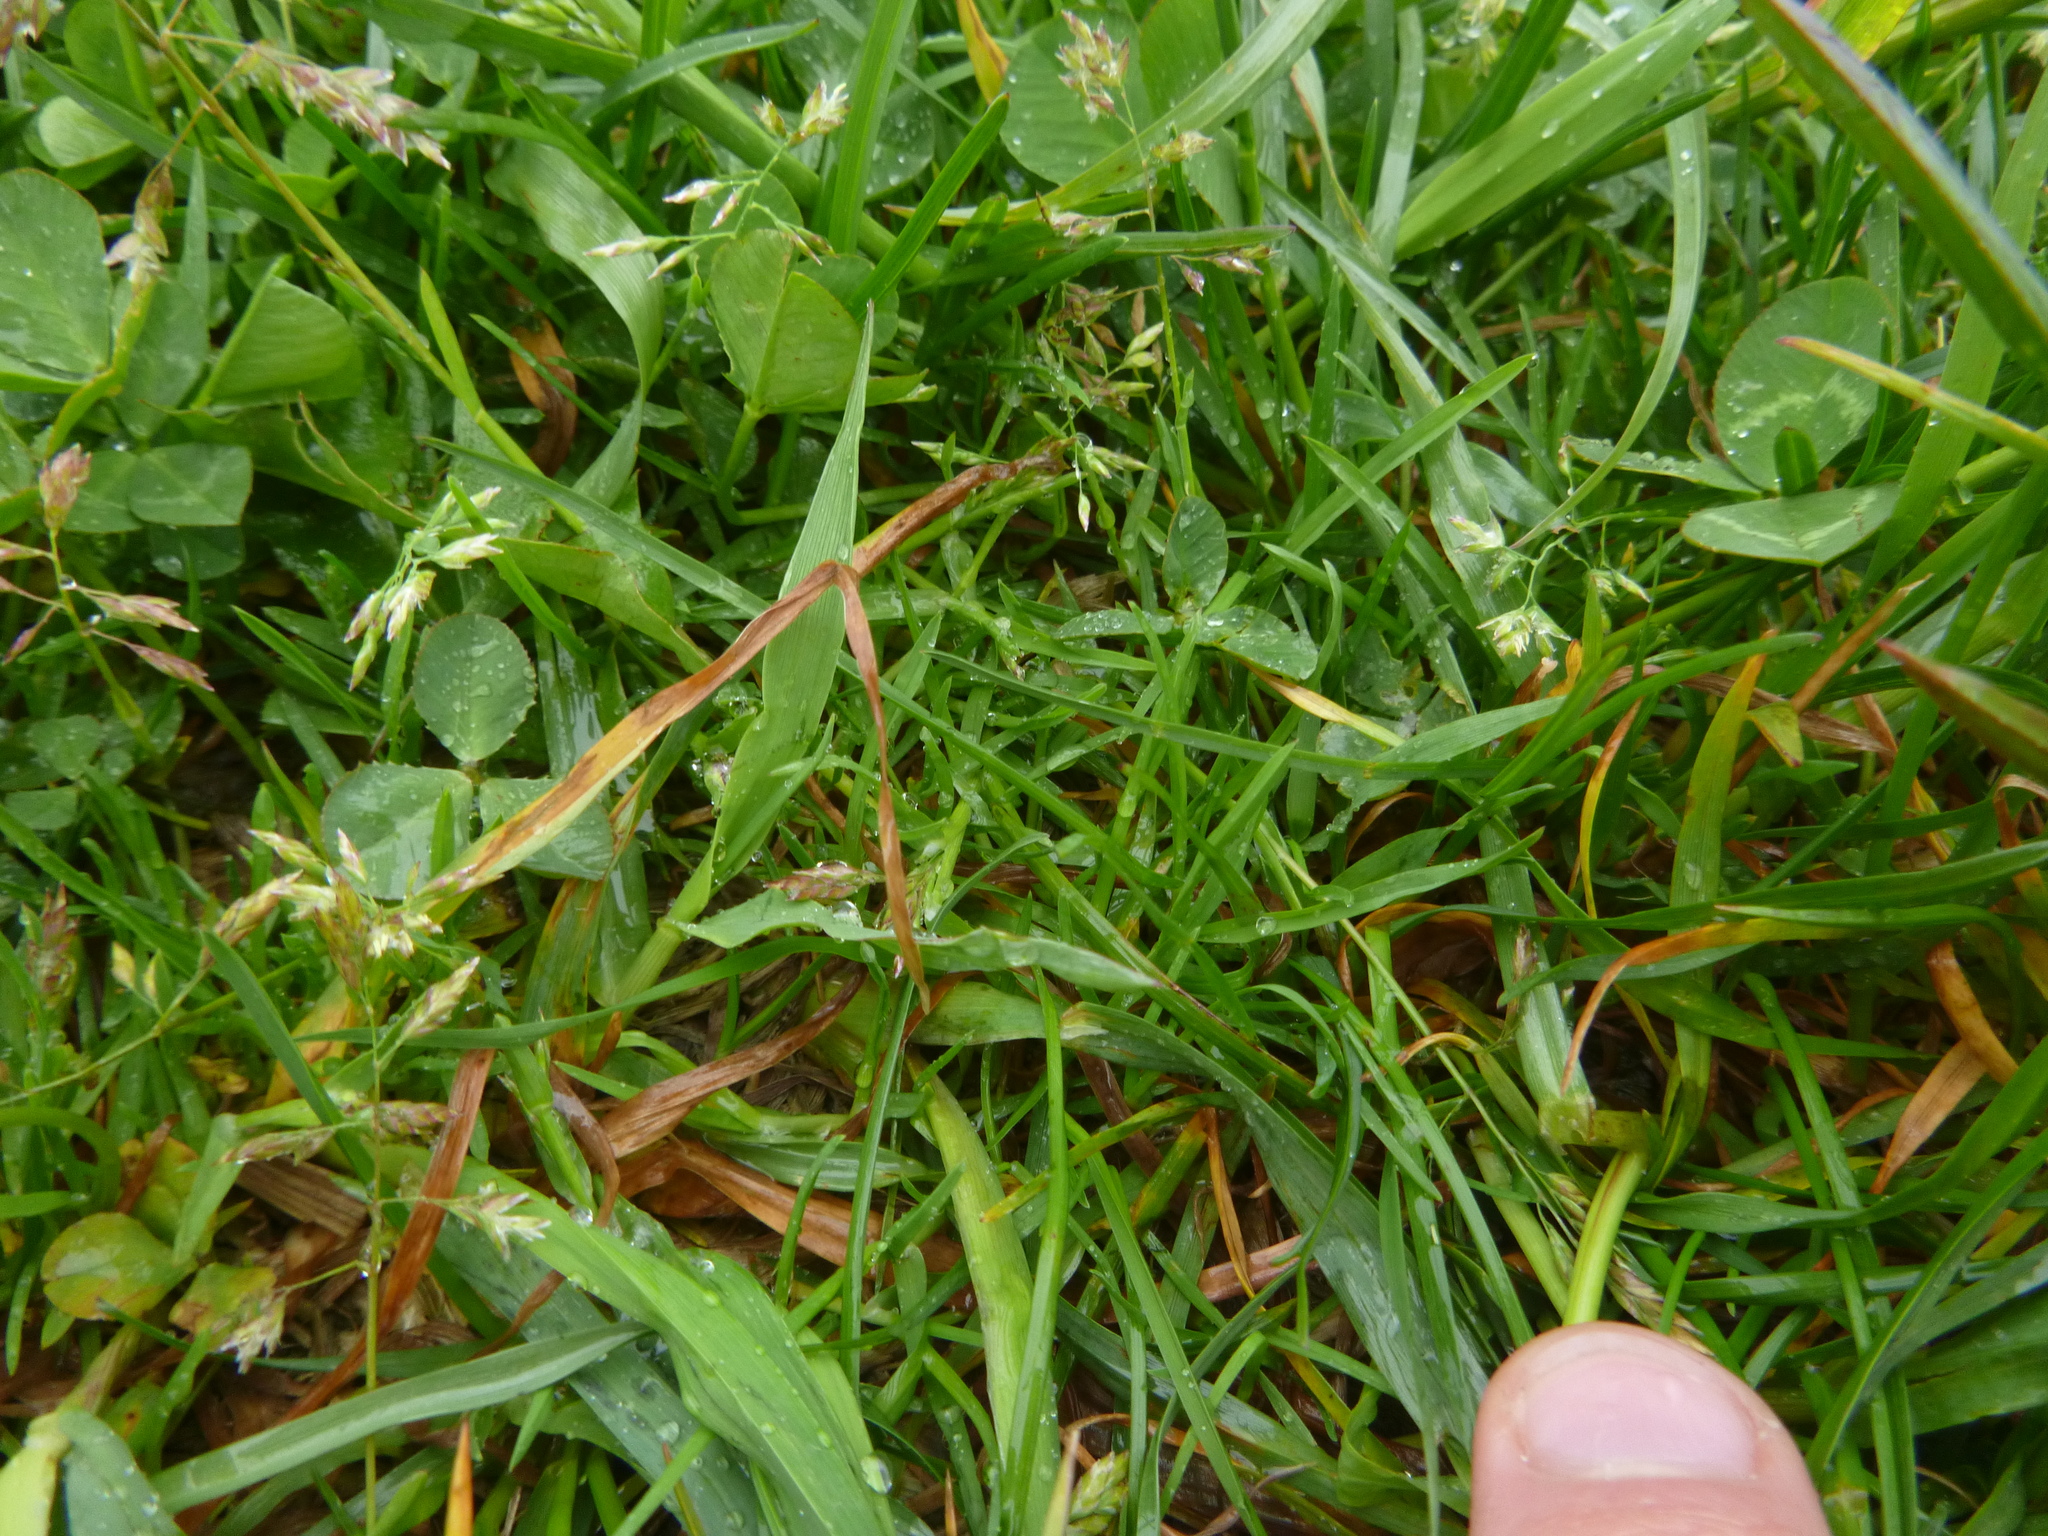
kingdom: Plantae
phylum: Tracheophyta
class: Liliopsida
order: Poales
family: Poaceae
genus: Poa
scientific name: Poa annua
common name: Annual bluegrass
